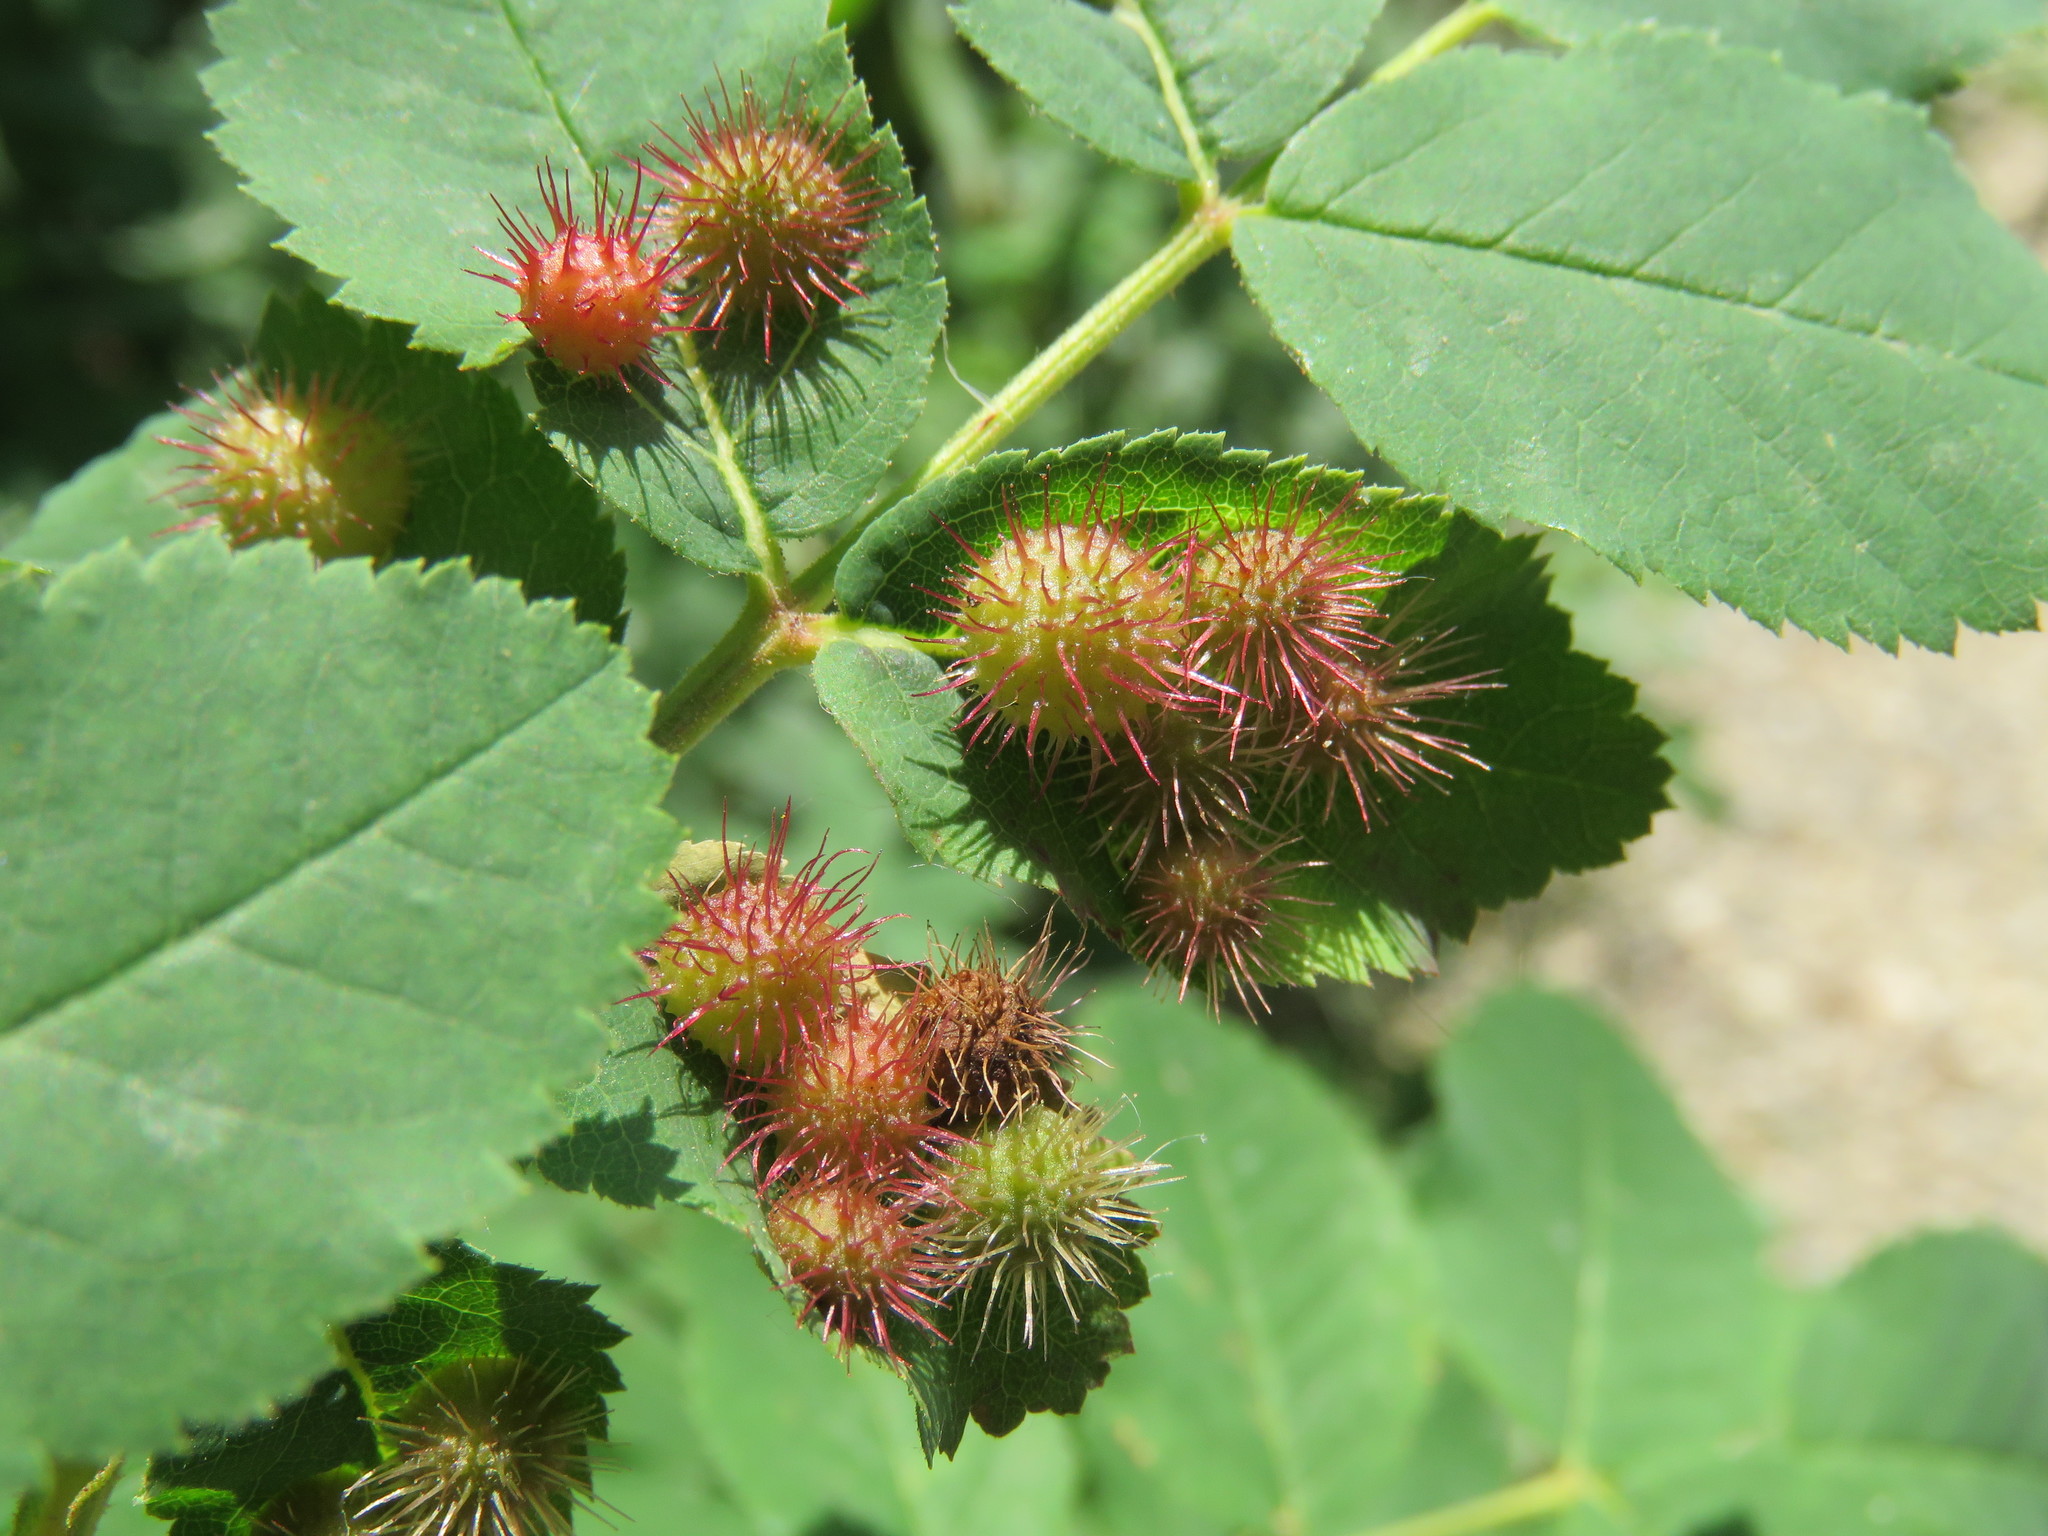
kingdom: Animalia
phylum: Arthropoda
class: Insecta
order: Hymenoptera
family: Cynipidae
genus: Diplolepis
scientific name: Diplolepis polita
